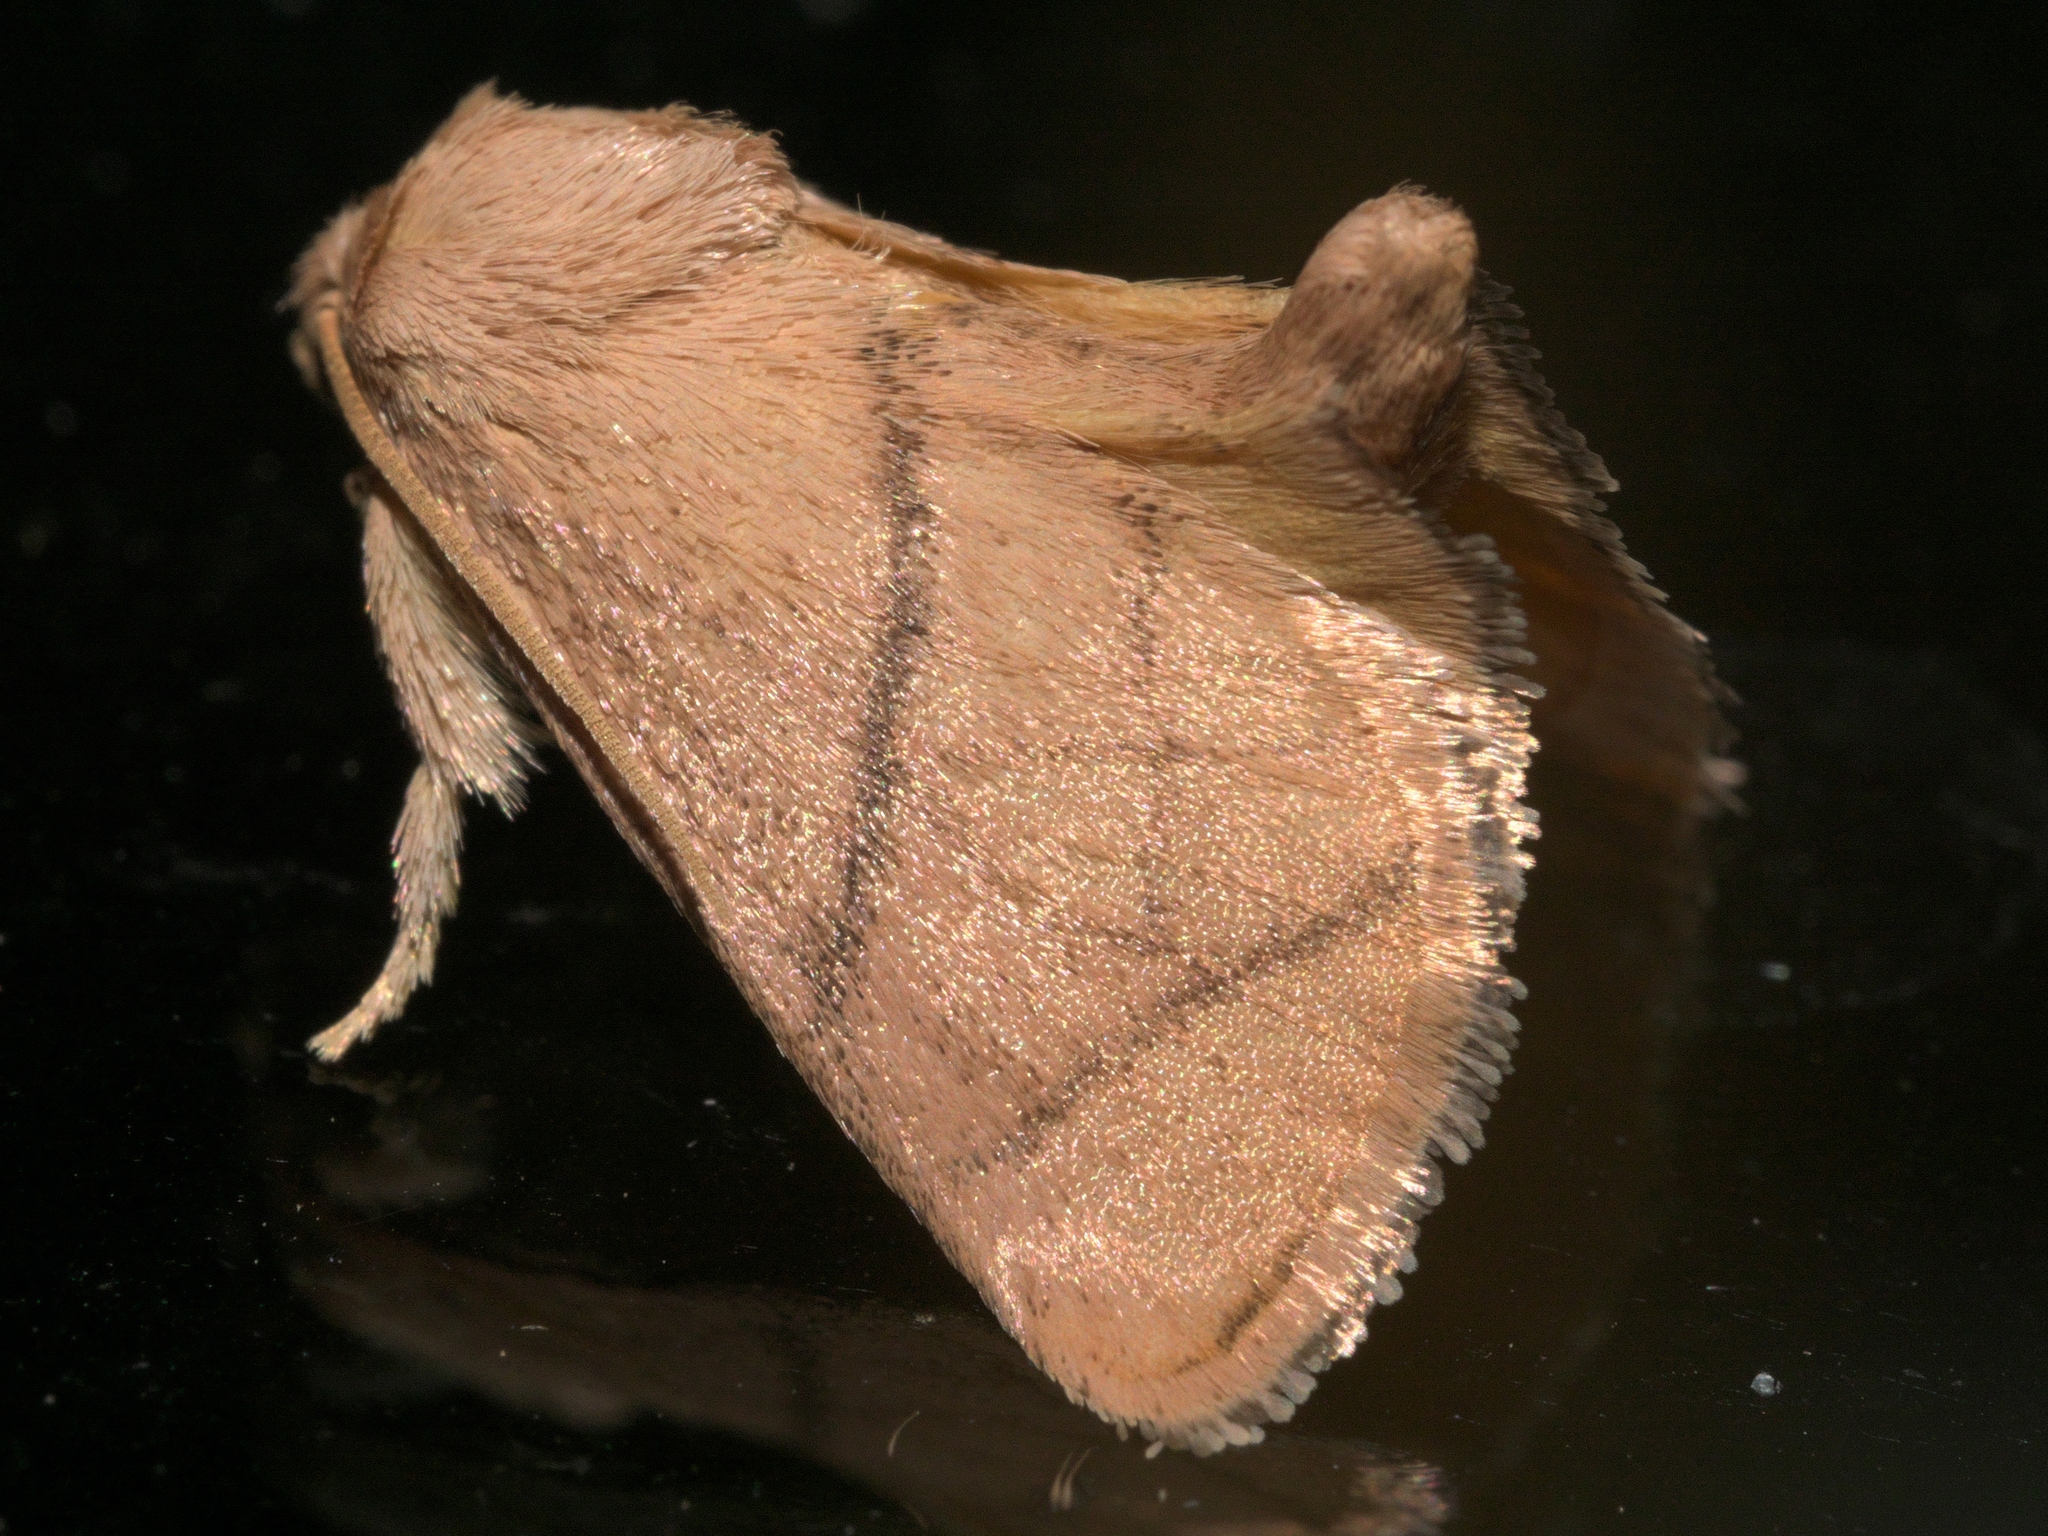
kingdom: Animalia
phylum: Arthropoda
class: Insecta
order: Lepidoptera
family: Limacodidae
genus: Apoda
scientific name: Apoda y-inversa
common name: Yellow-collared slug moth
